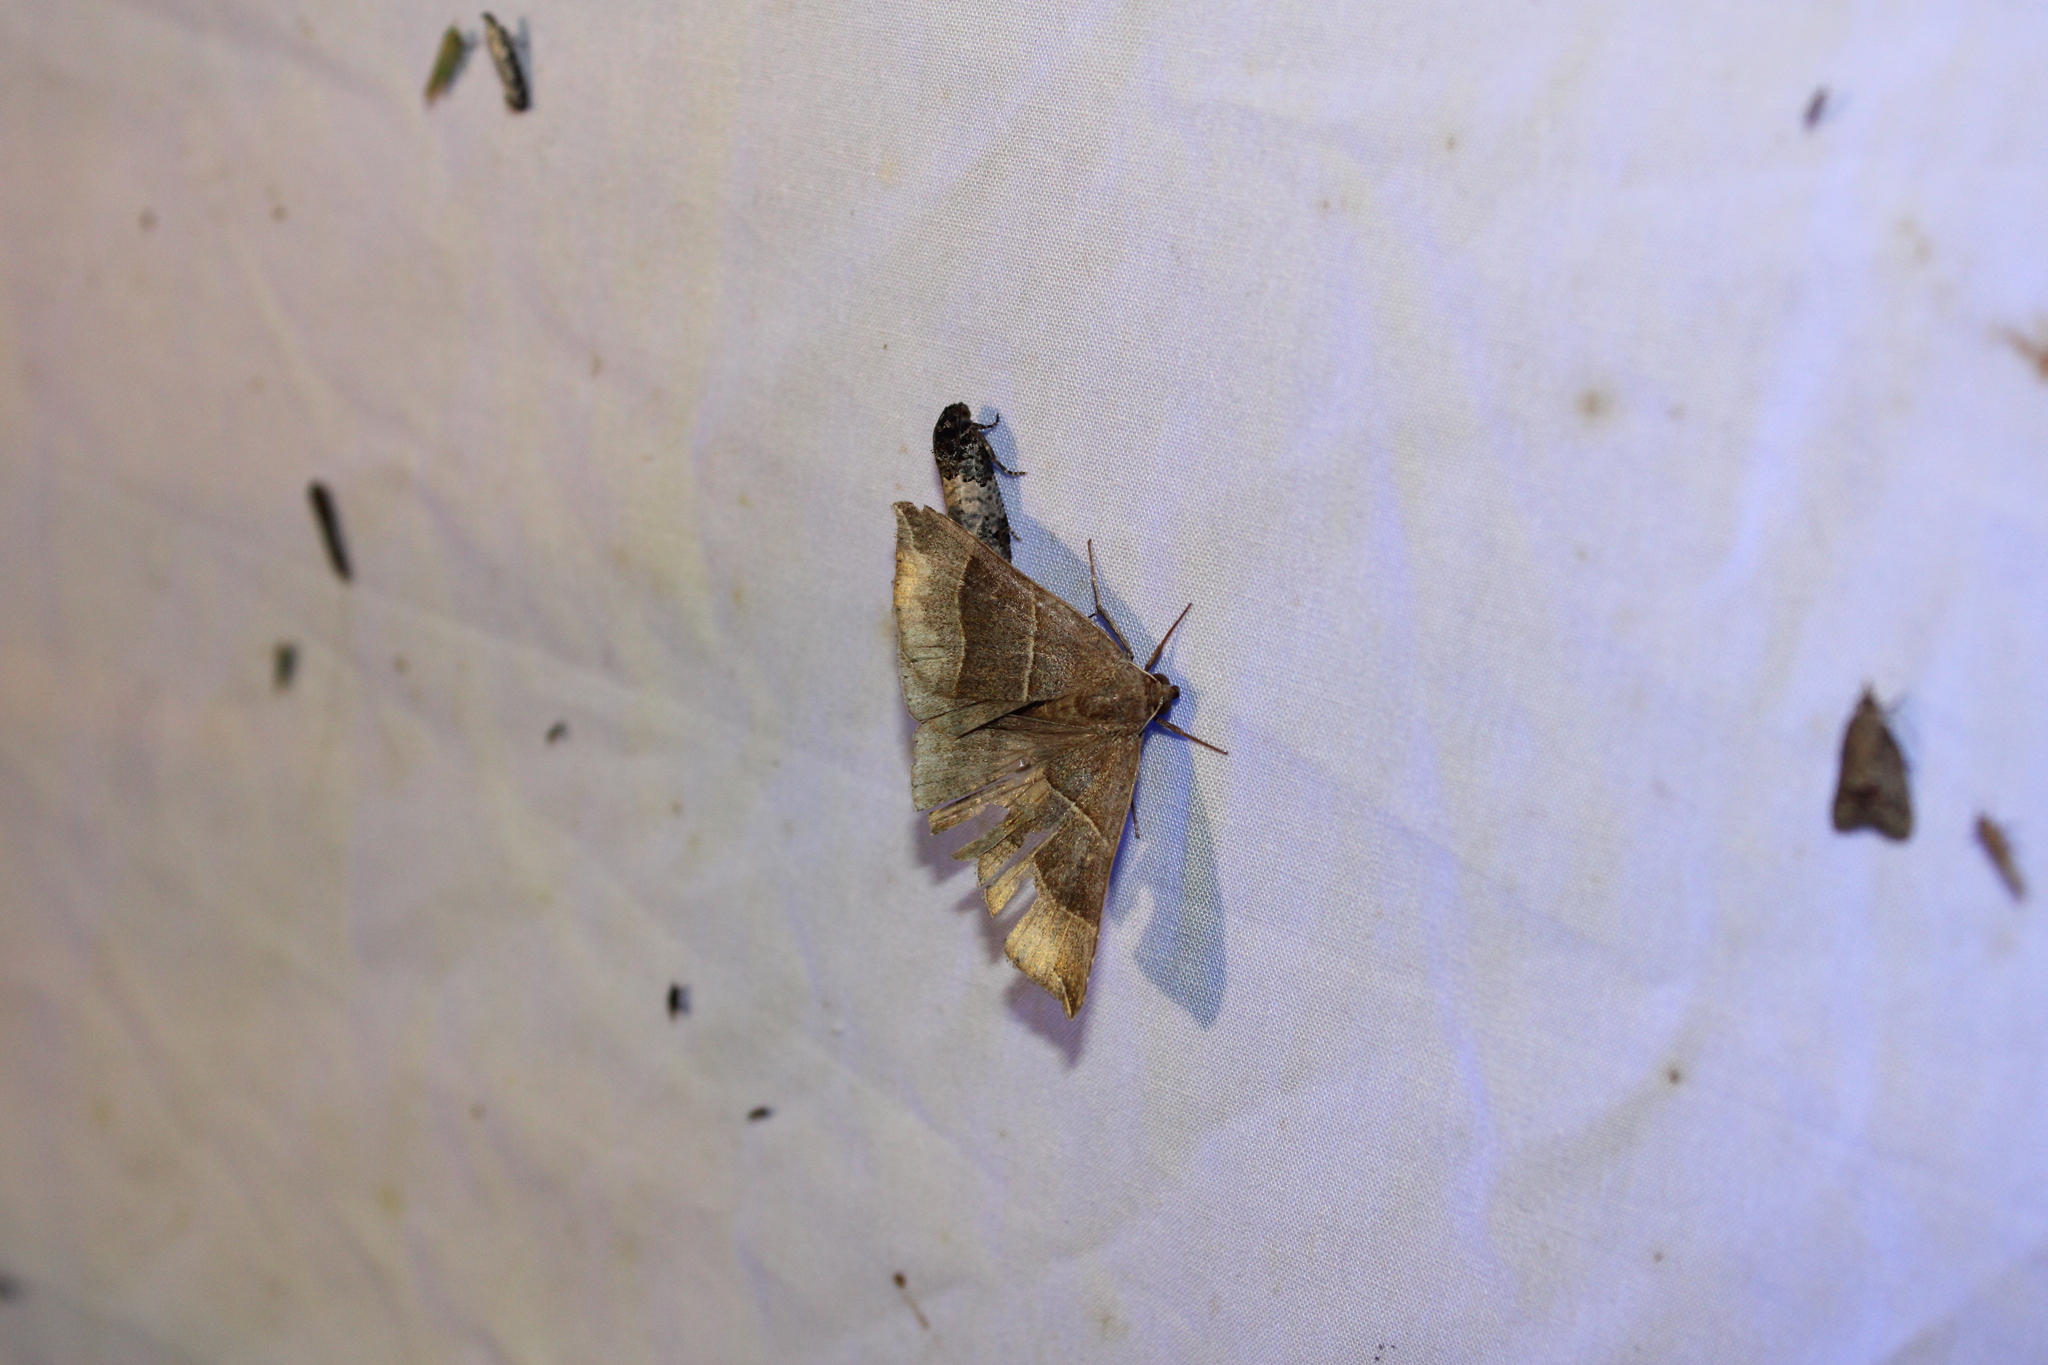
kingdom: Animalia
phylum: Arthropoda
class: Insecta
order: Lepidoptera
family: Erebidae
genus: Parallelia
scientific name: Parallelia bistriaris
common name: Maple looper moth
